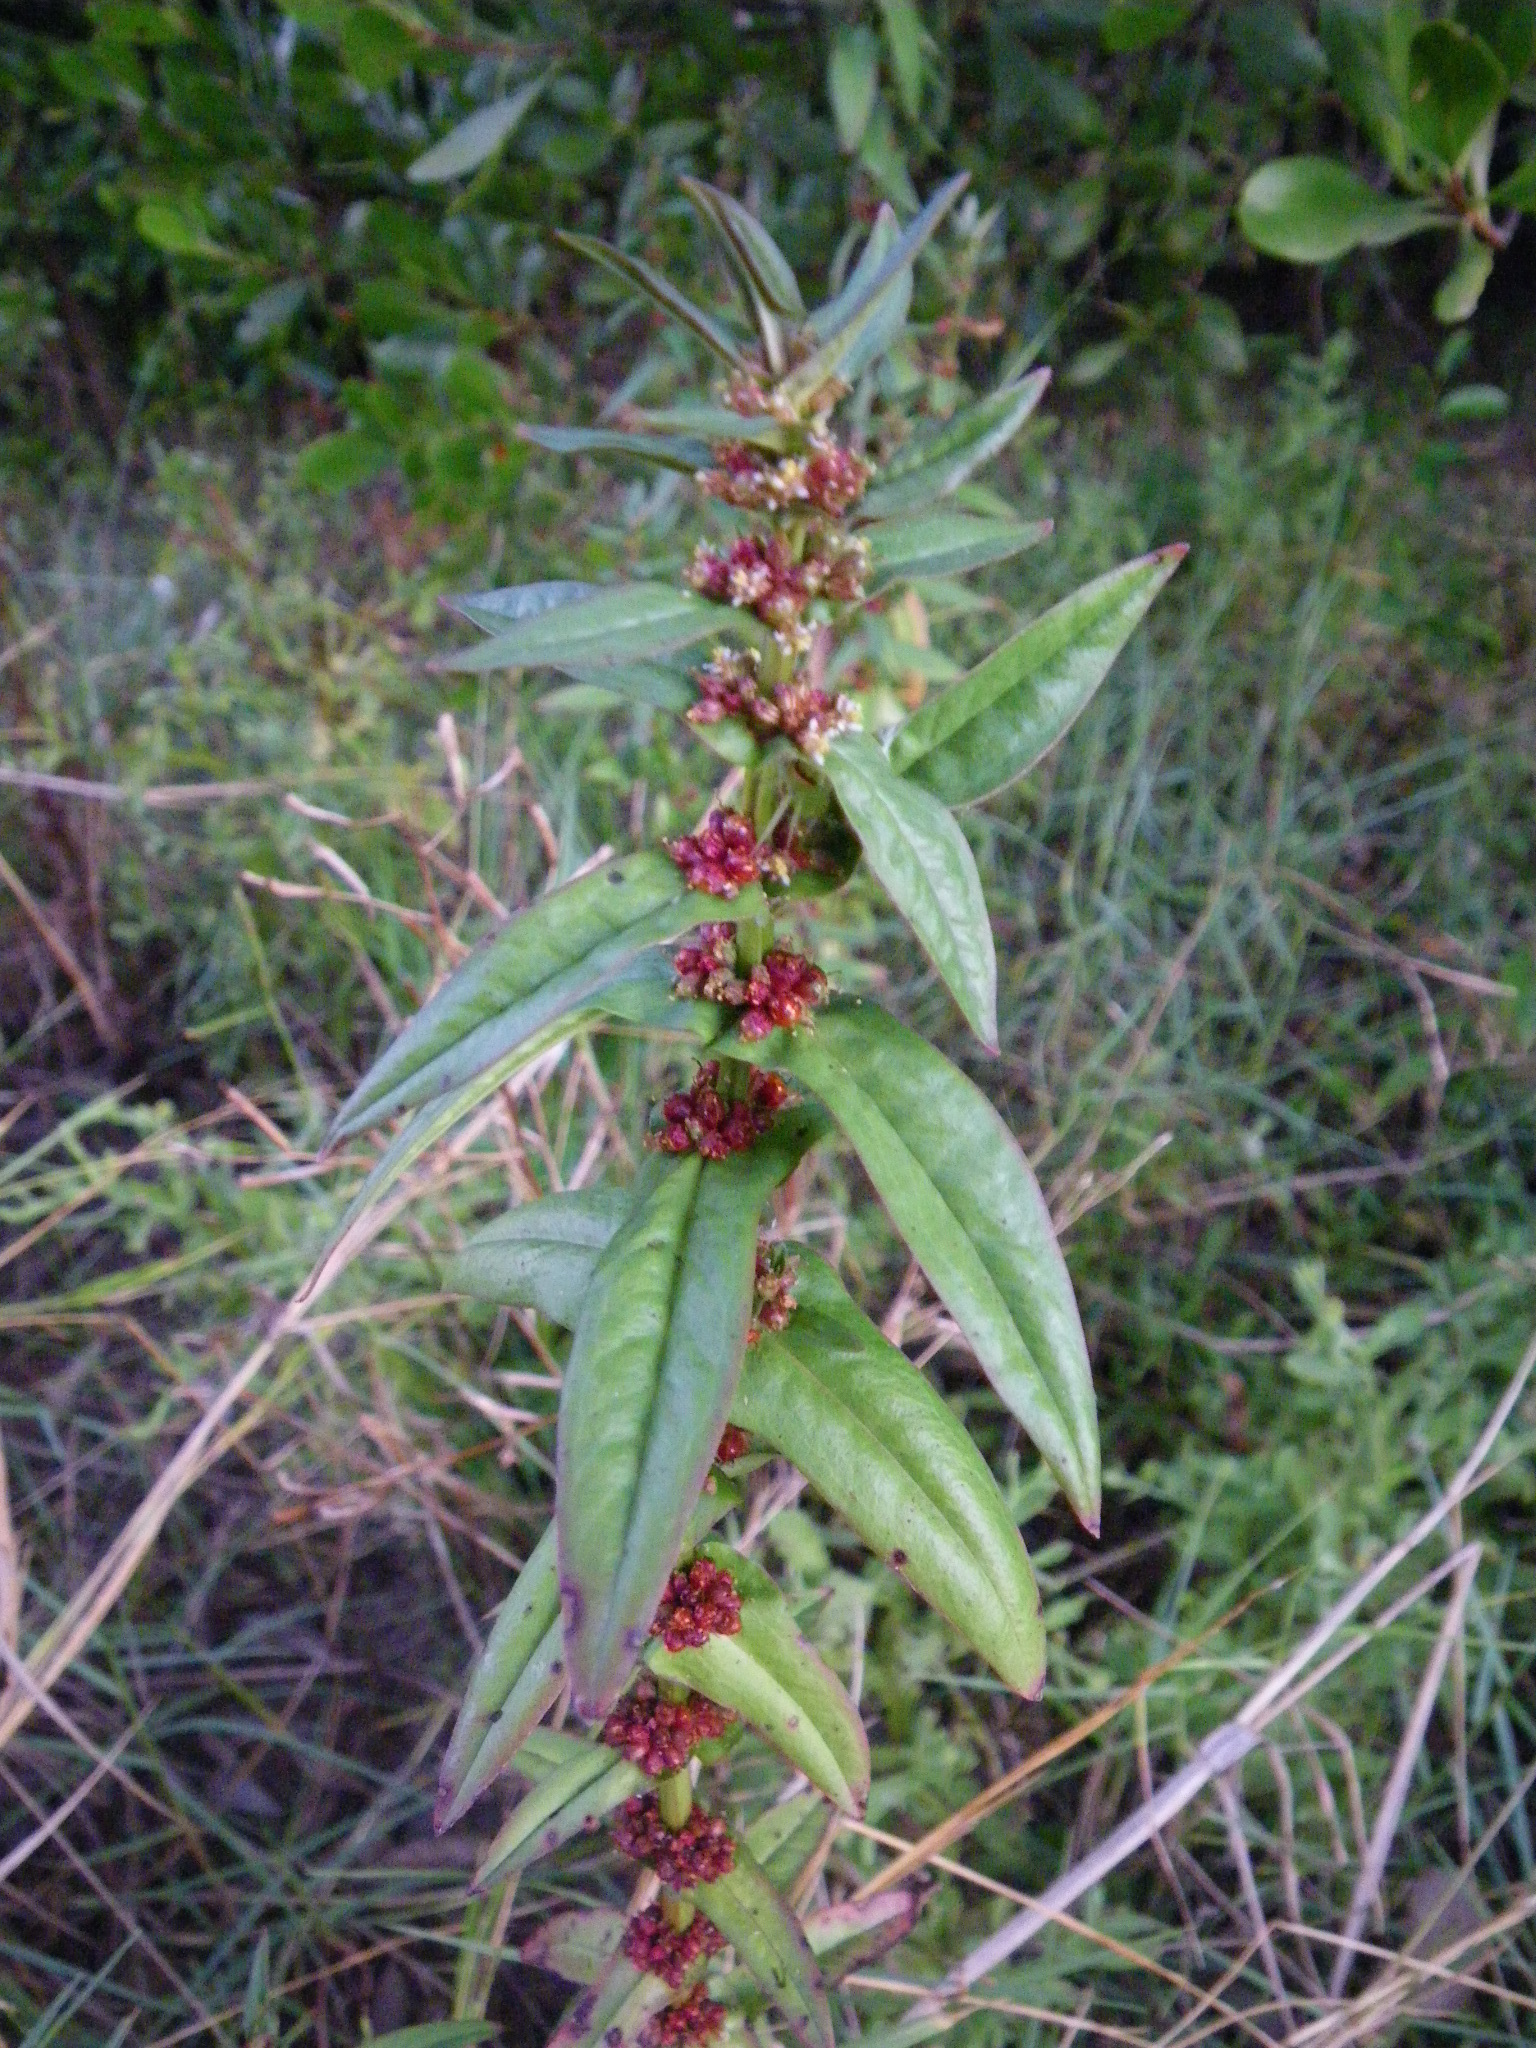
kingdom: Plantae
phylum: Tracheophyta
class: Magnoliopsida
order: Myrtales
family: Lythraceae
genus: Ammannia
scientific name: Ammannia auriculata
